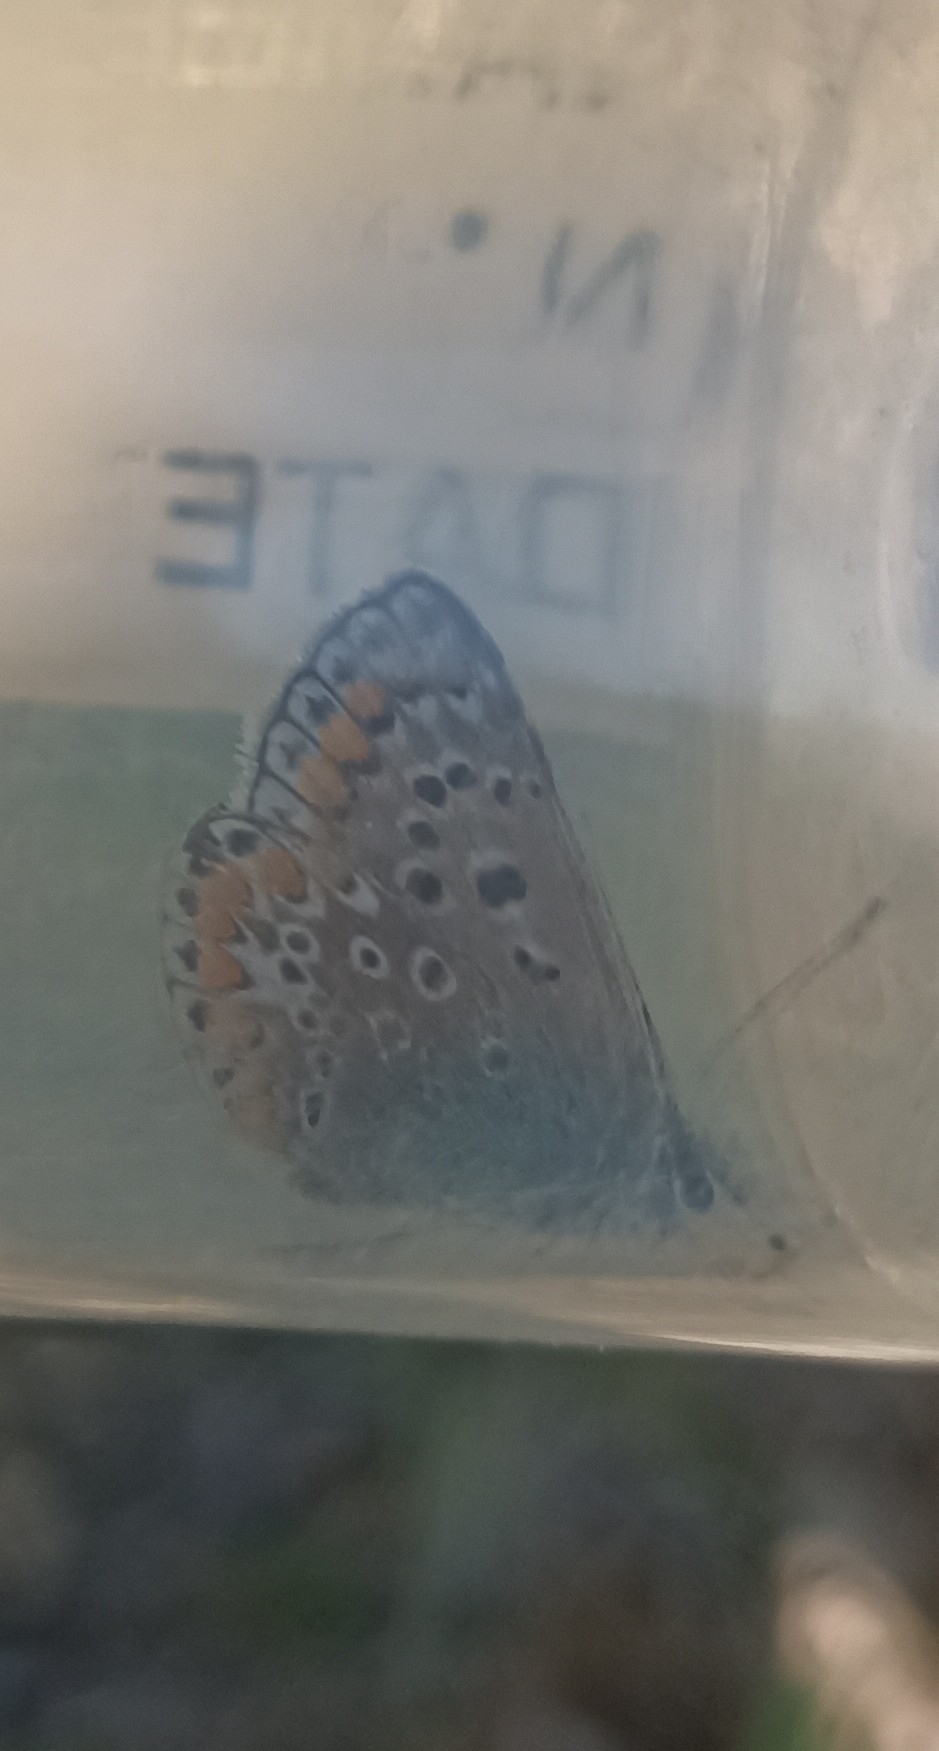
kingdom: Animalia
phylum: Arthropoda
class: Insecta
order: Lepidoptera
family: Lycaenidae
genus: Polyommatus
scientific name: Polyommatus icarus
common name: Common blue
